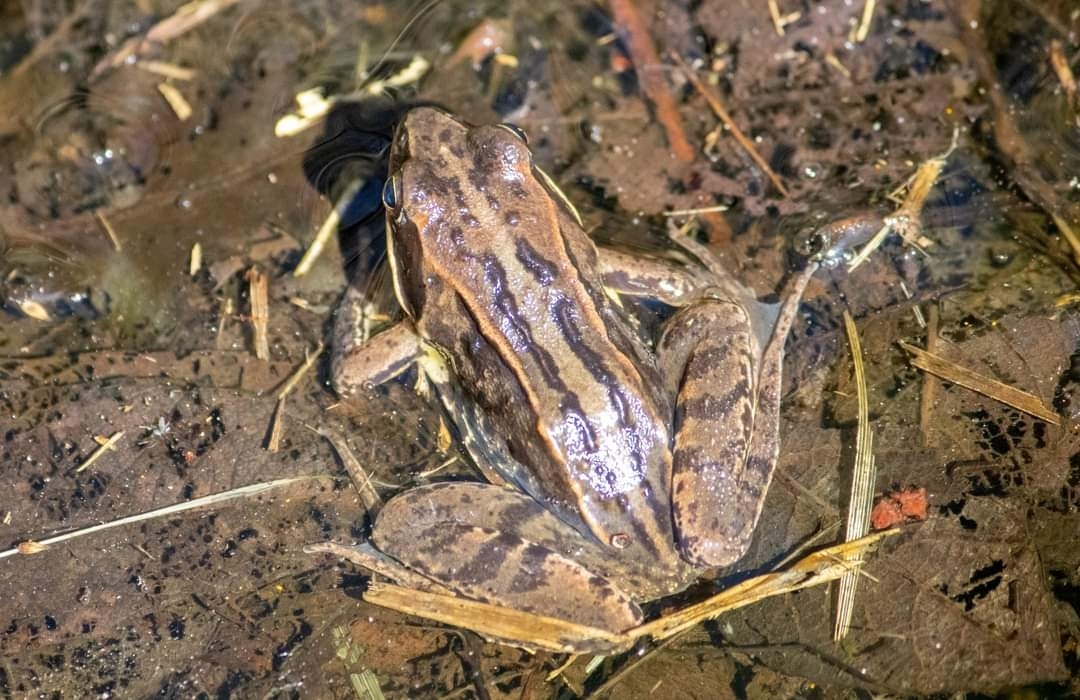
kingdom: Animalia
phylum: Chordata
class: Amphibia
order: Anura
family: Ranidae
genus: Rana
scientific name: Rana arvalis
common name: Moor frog
